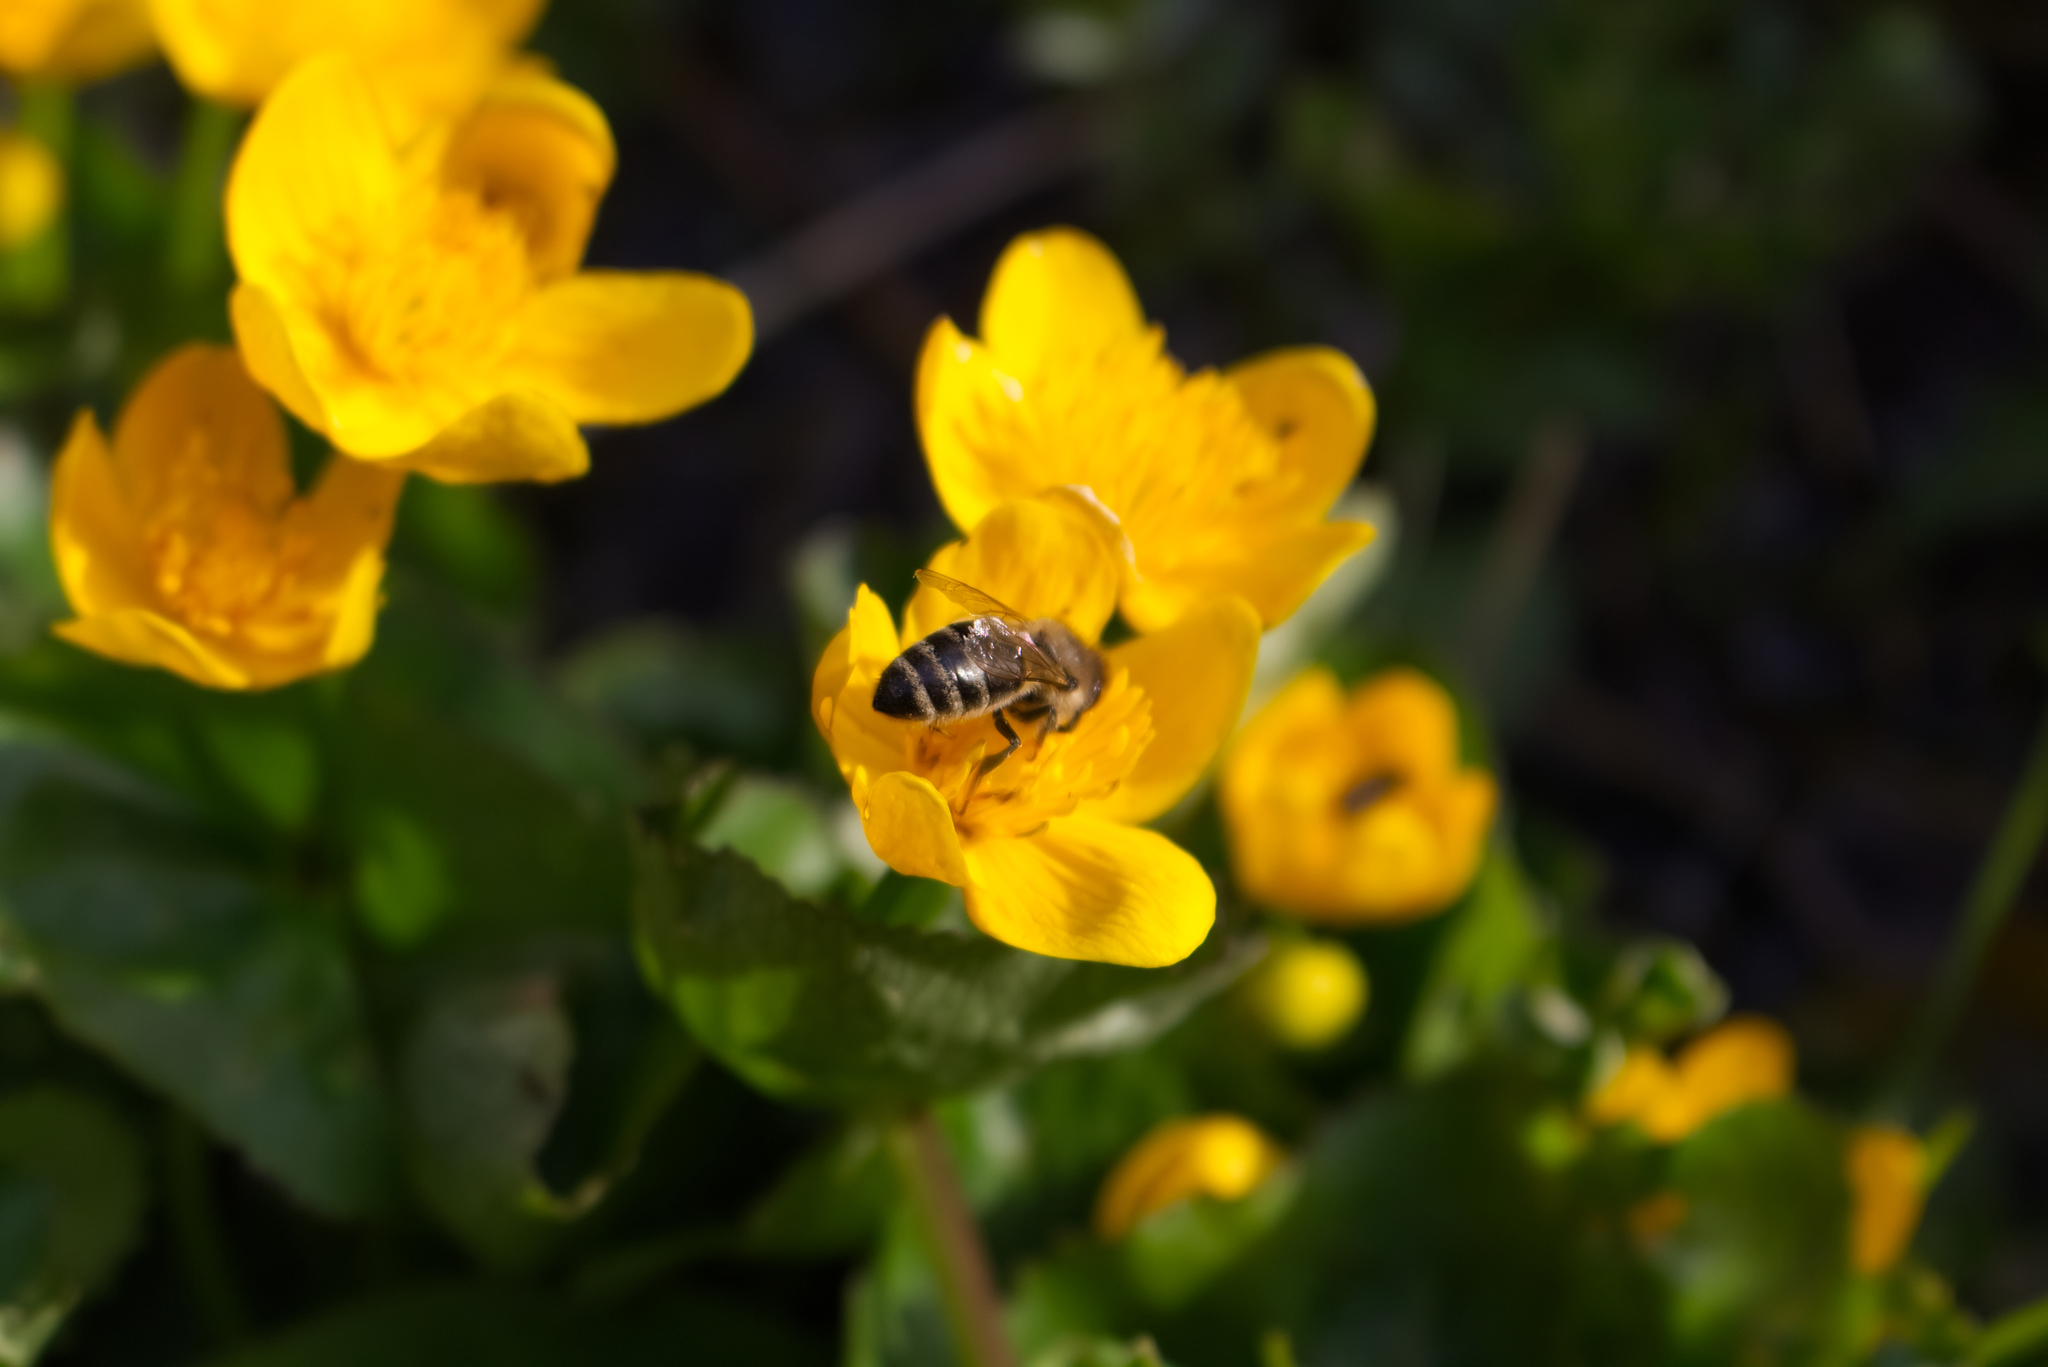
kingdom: Animalia
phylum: Arthropoda
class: Insecta
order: Hymenoptera
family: Apidae
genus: Apis
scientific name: Apis mellifera
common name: Honey bee
